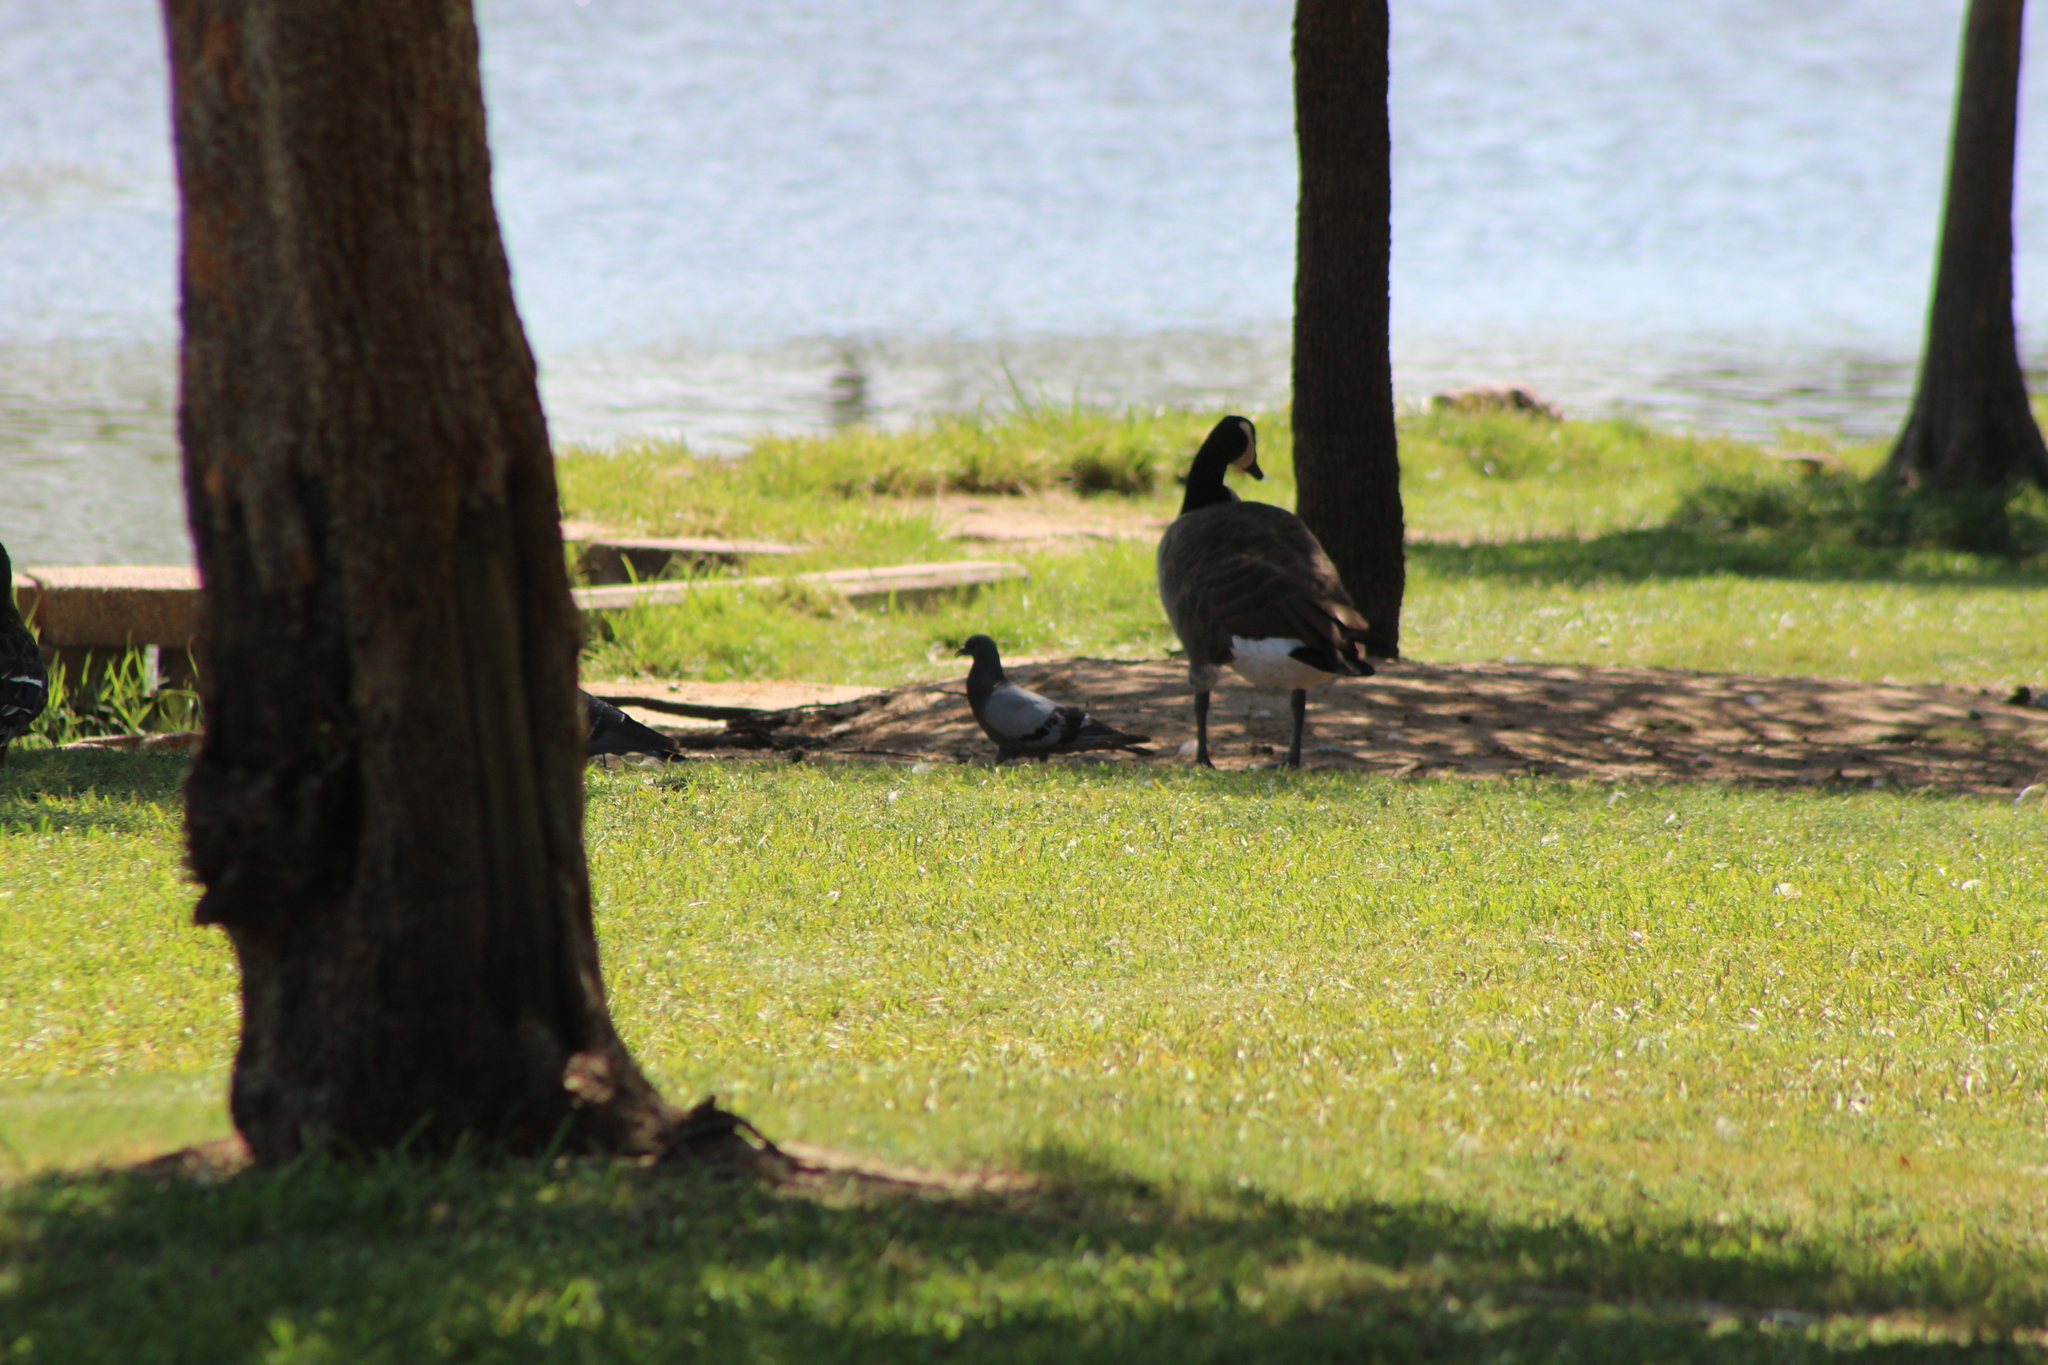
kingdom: Animalia
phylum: Chordata
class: Aves
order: Columbiformes
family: Columbidae
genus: Columba
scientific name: Columba livia
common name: Rock pigeon
